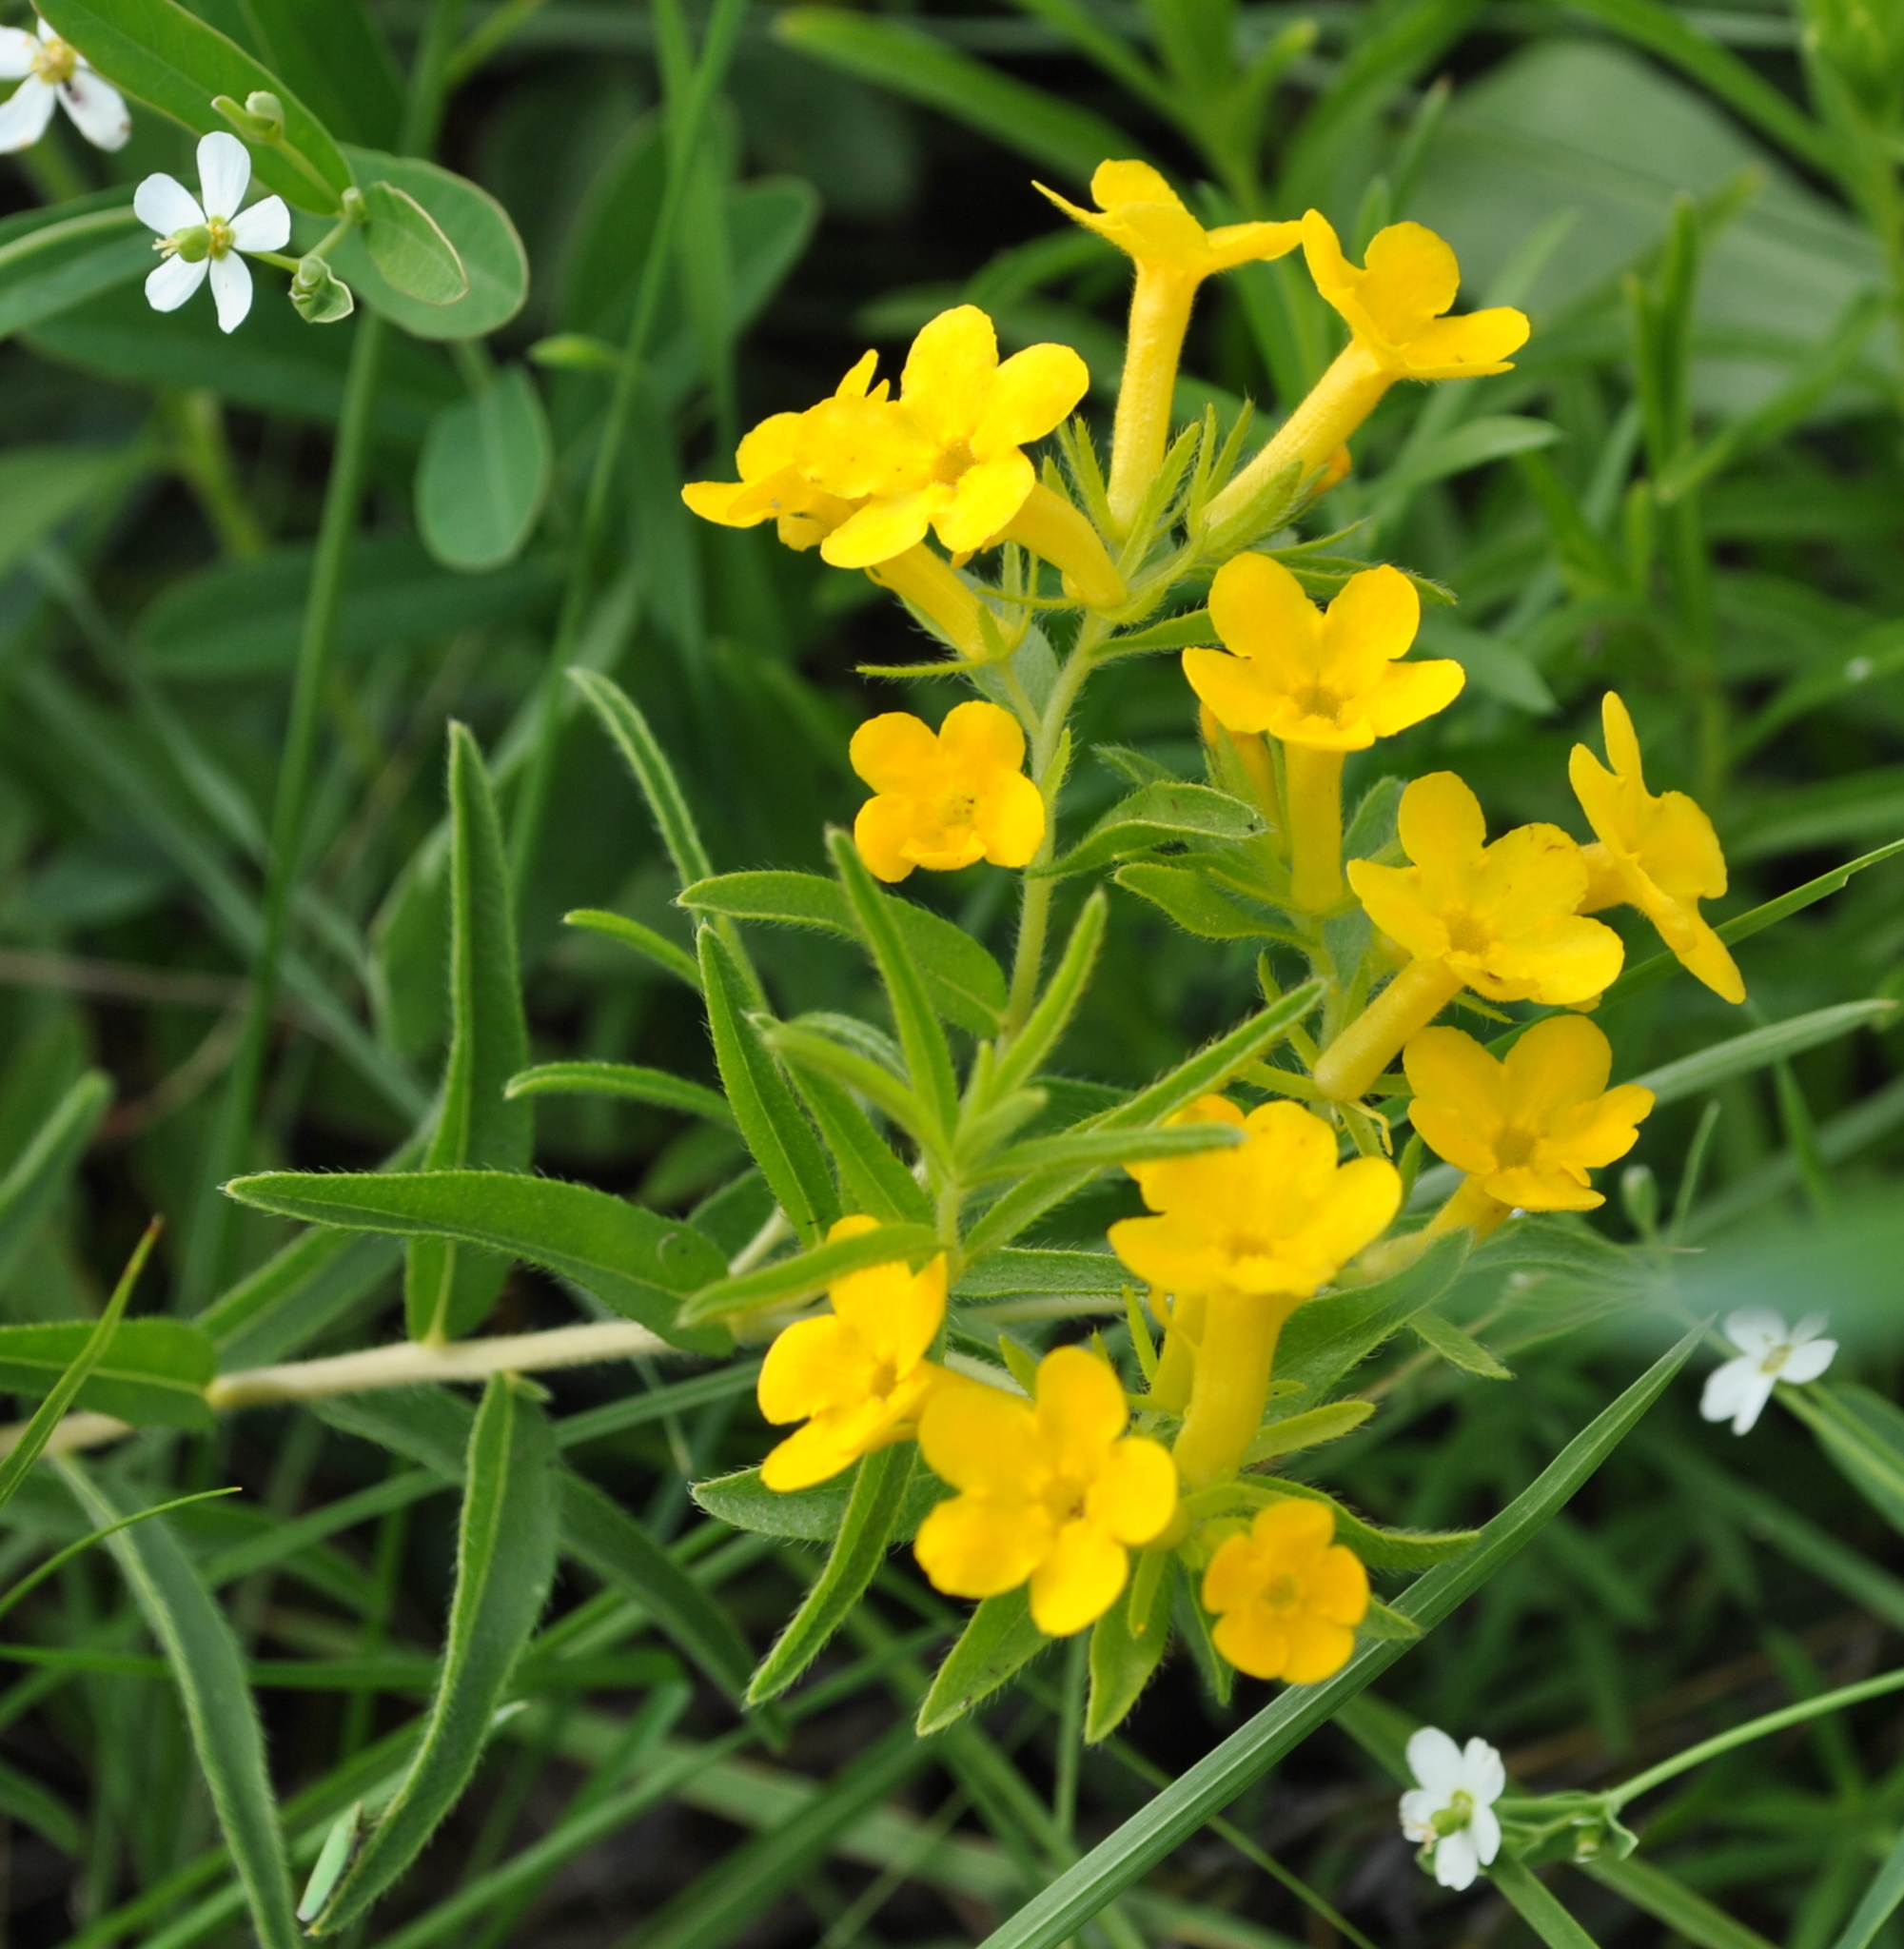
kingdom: Plantae
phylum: Tracheophyta
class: Magnoliopsida
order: Boraginales
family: Boraginaceae
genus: Lithospermum
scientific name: Lithospermum caroliniense
